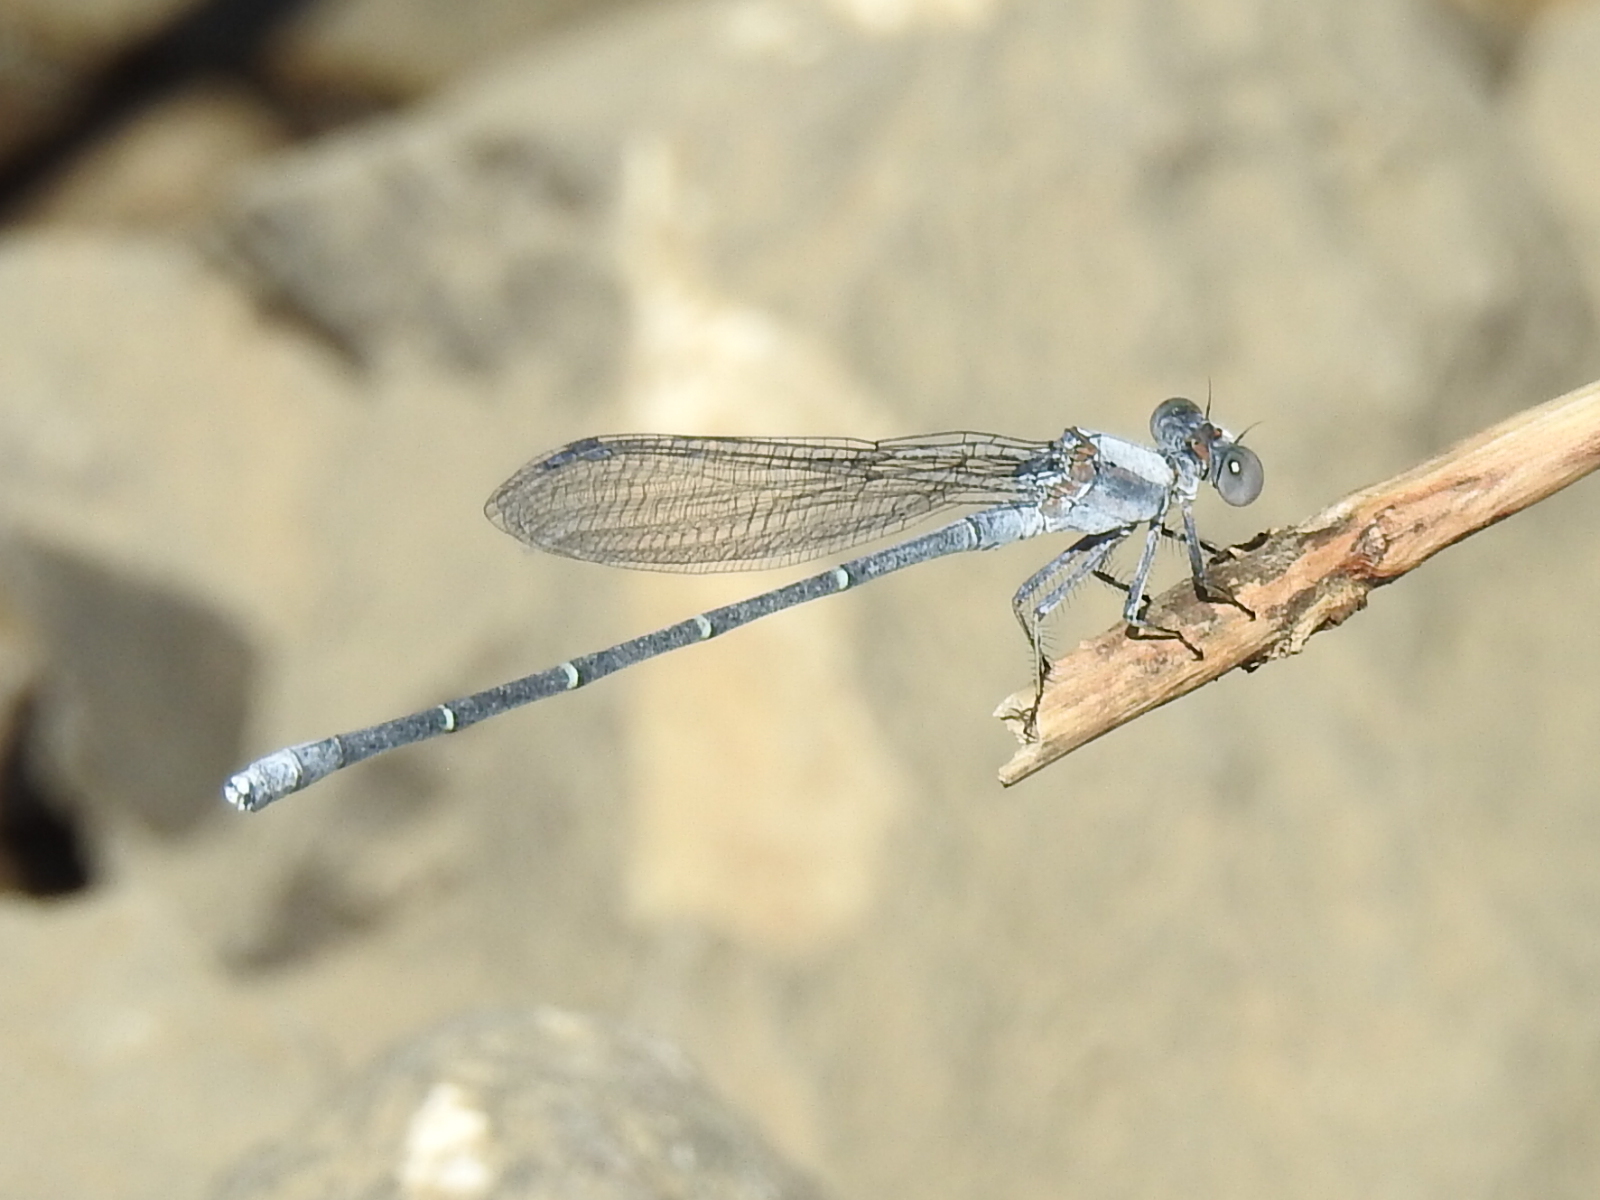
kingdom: Animalia
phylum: Arthropoda
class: Insecta
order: Odonata
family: Coenagrionidae
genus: Argia
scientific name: Argia moesta
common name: Powdered dancer
